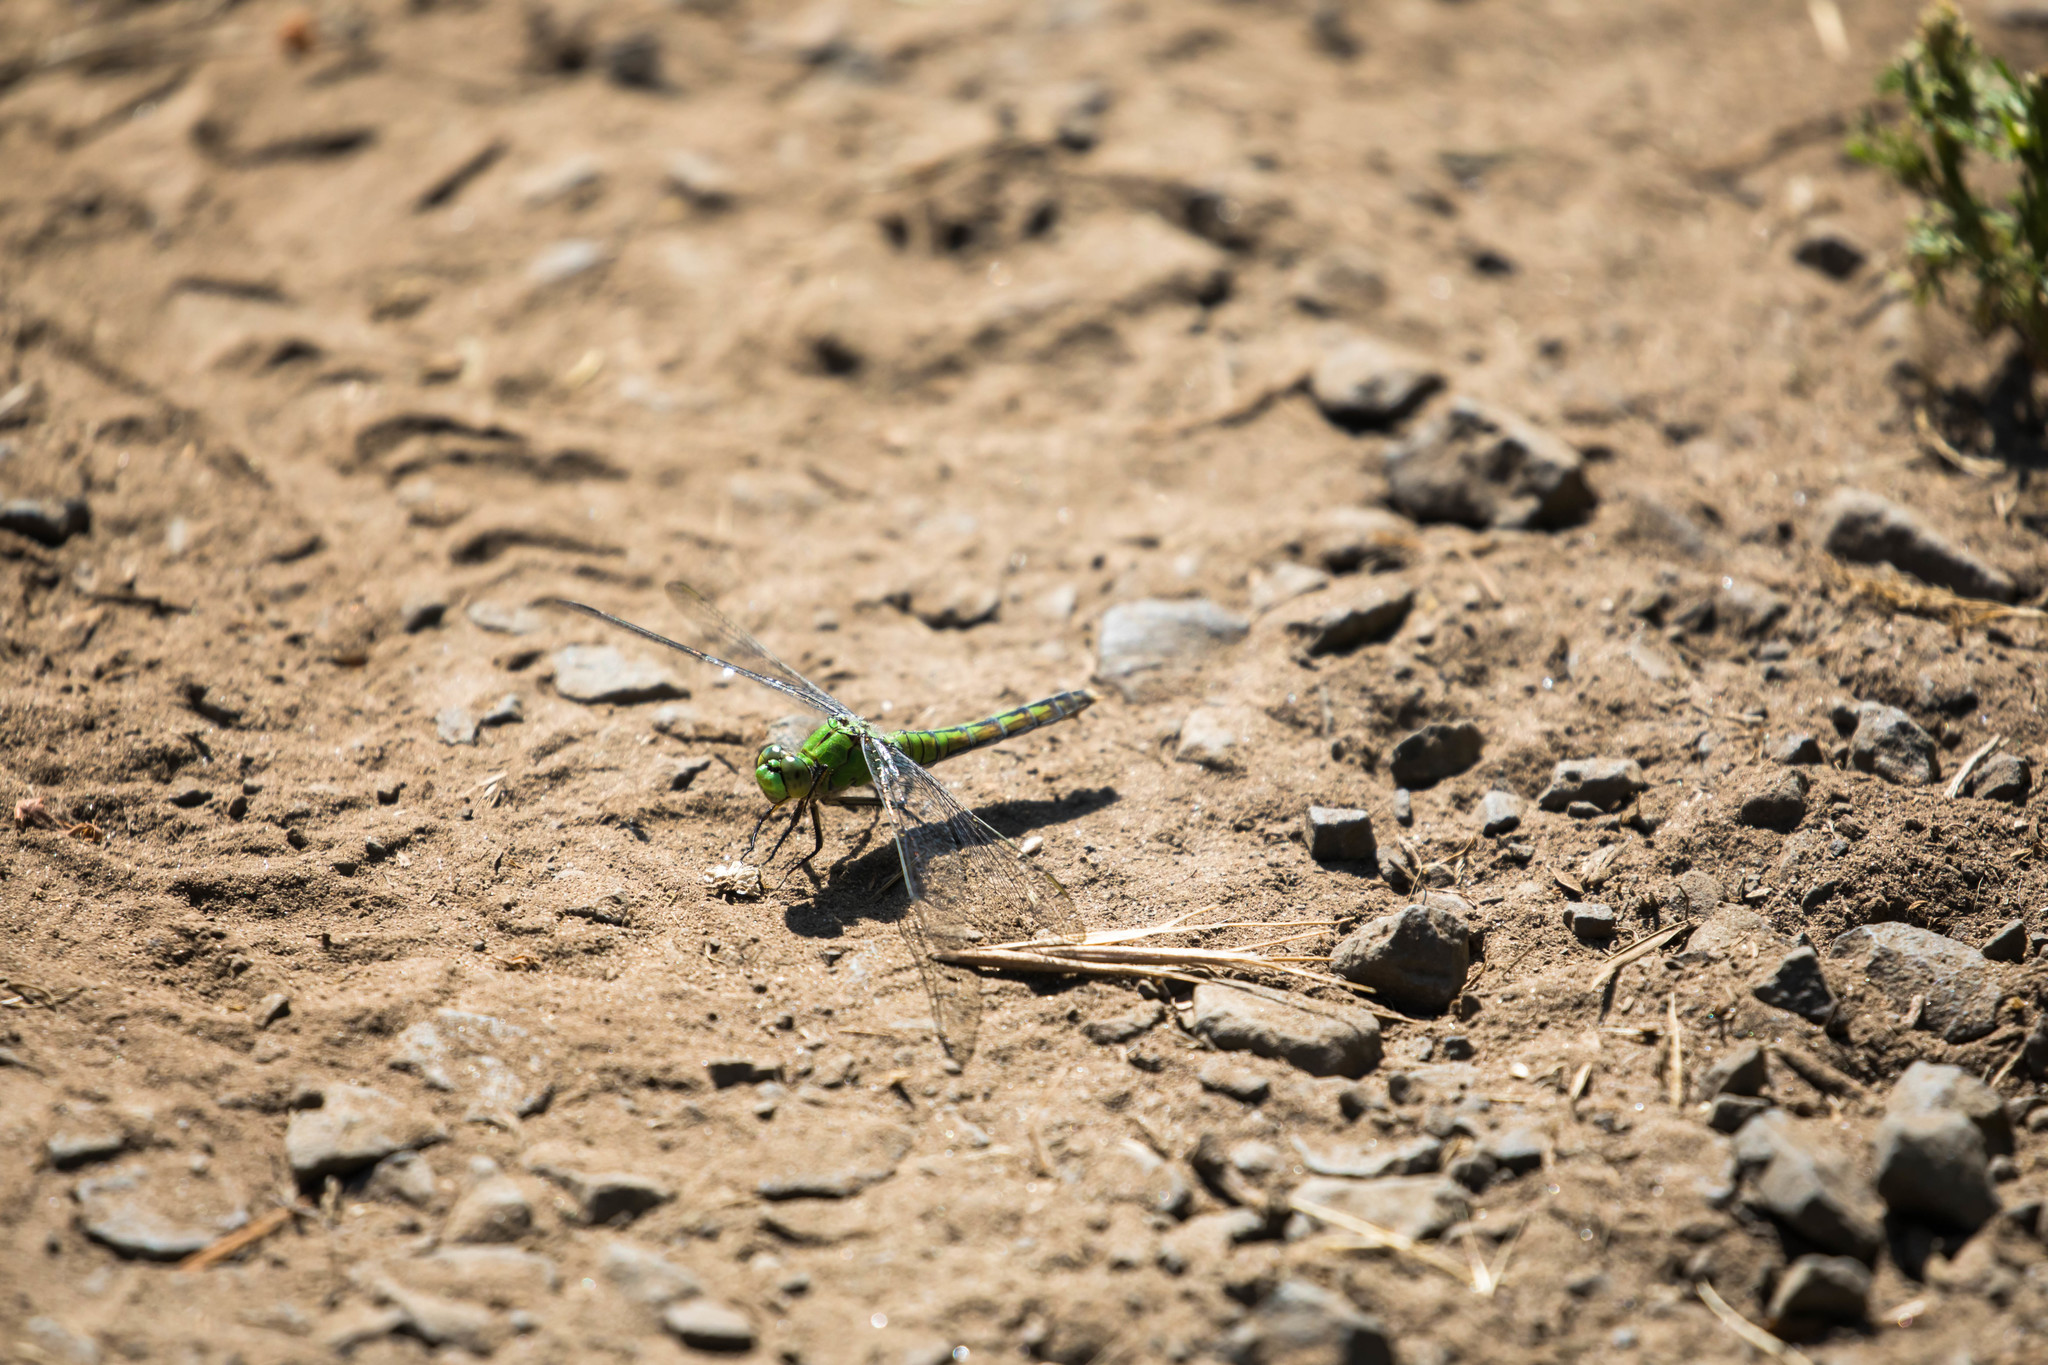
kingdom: Animalia
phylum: Arthropoda
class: Insecta
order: Odonata
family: Libellulidae
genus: Erythemis
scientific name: Erythemis collocata
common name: Western pondhawk
